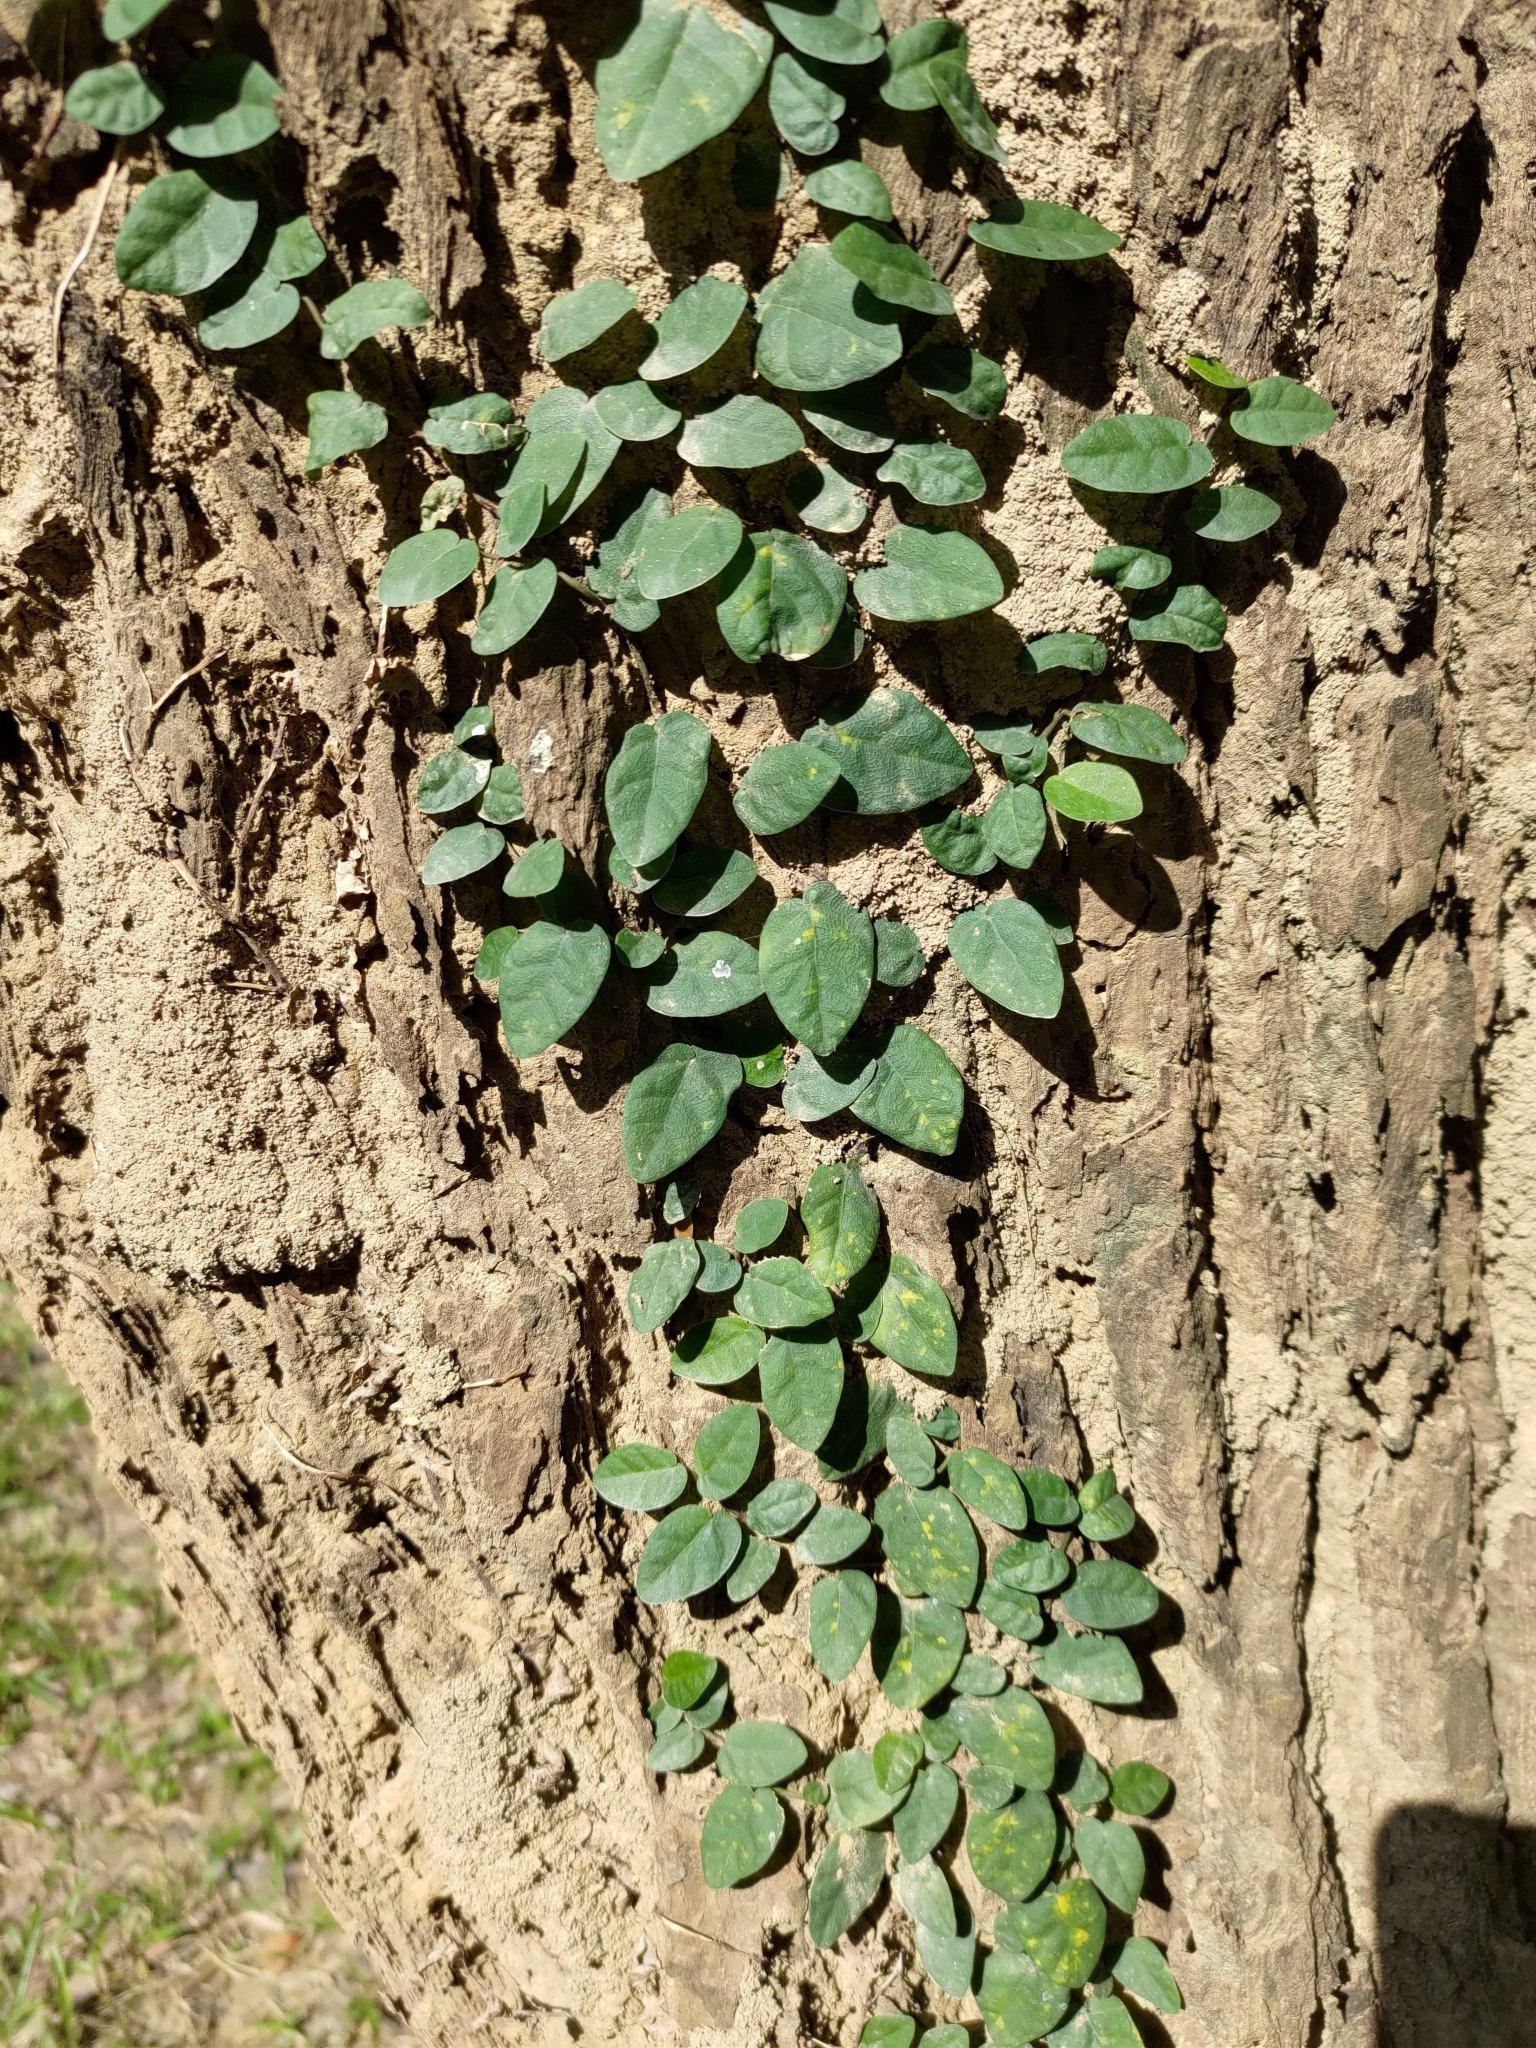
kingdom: Plantae
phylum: Tracheophyta
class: Magnoliopsida
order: Rosales
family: Moraceae
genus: Ficus
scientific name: Ficus pumila
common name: Climbingfig
